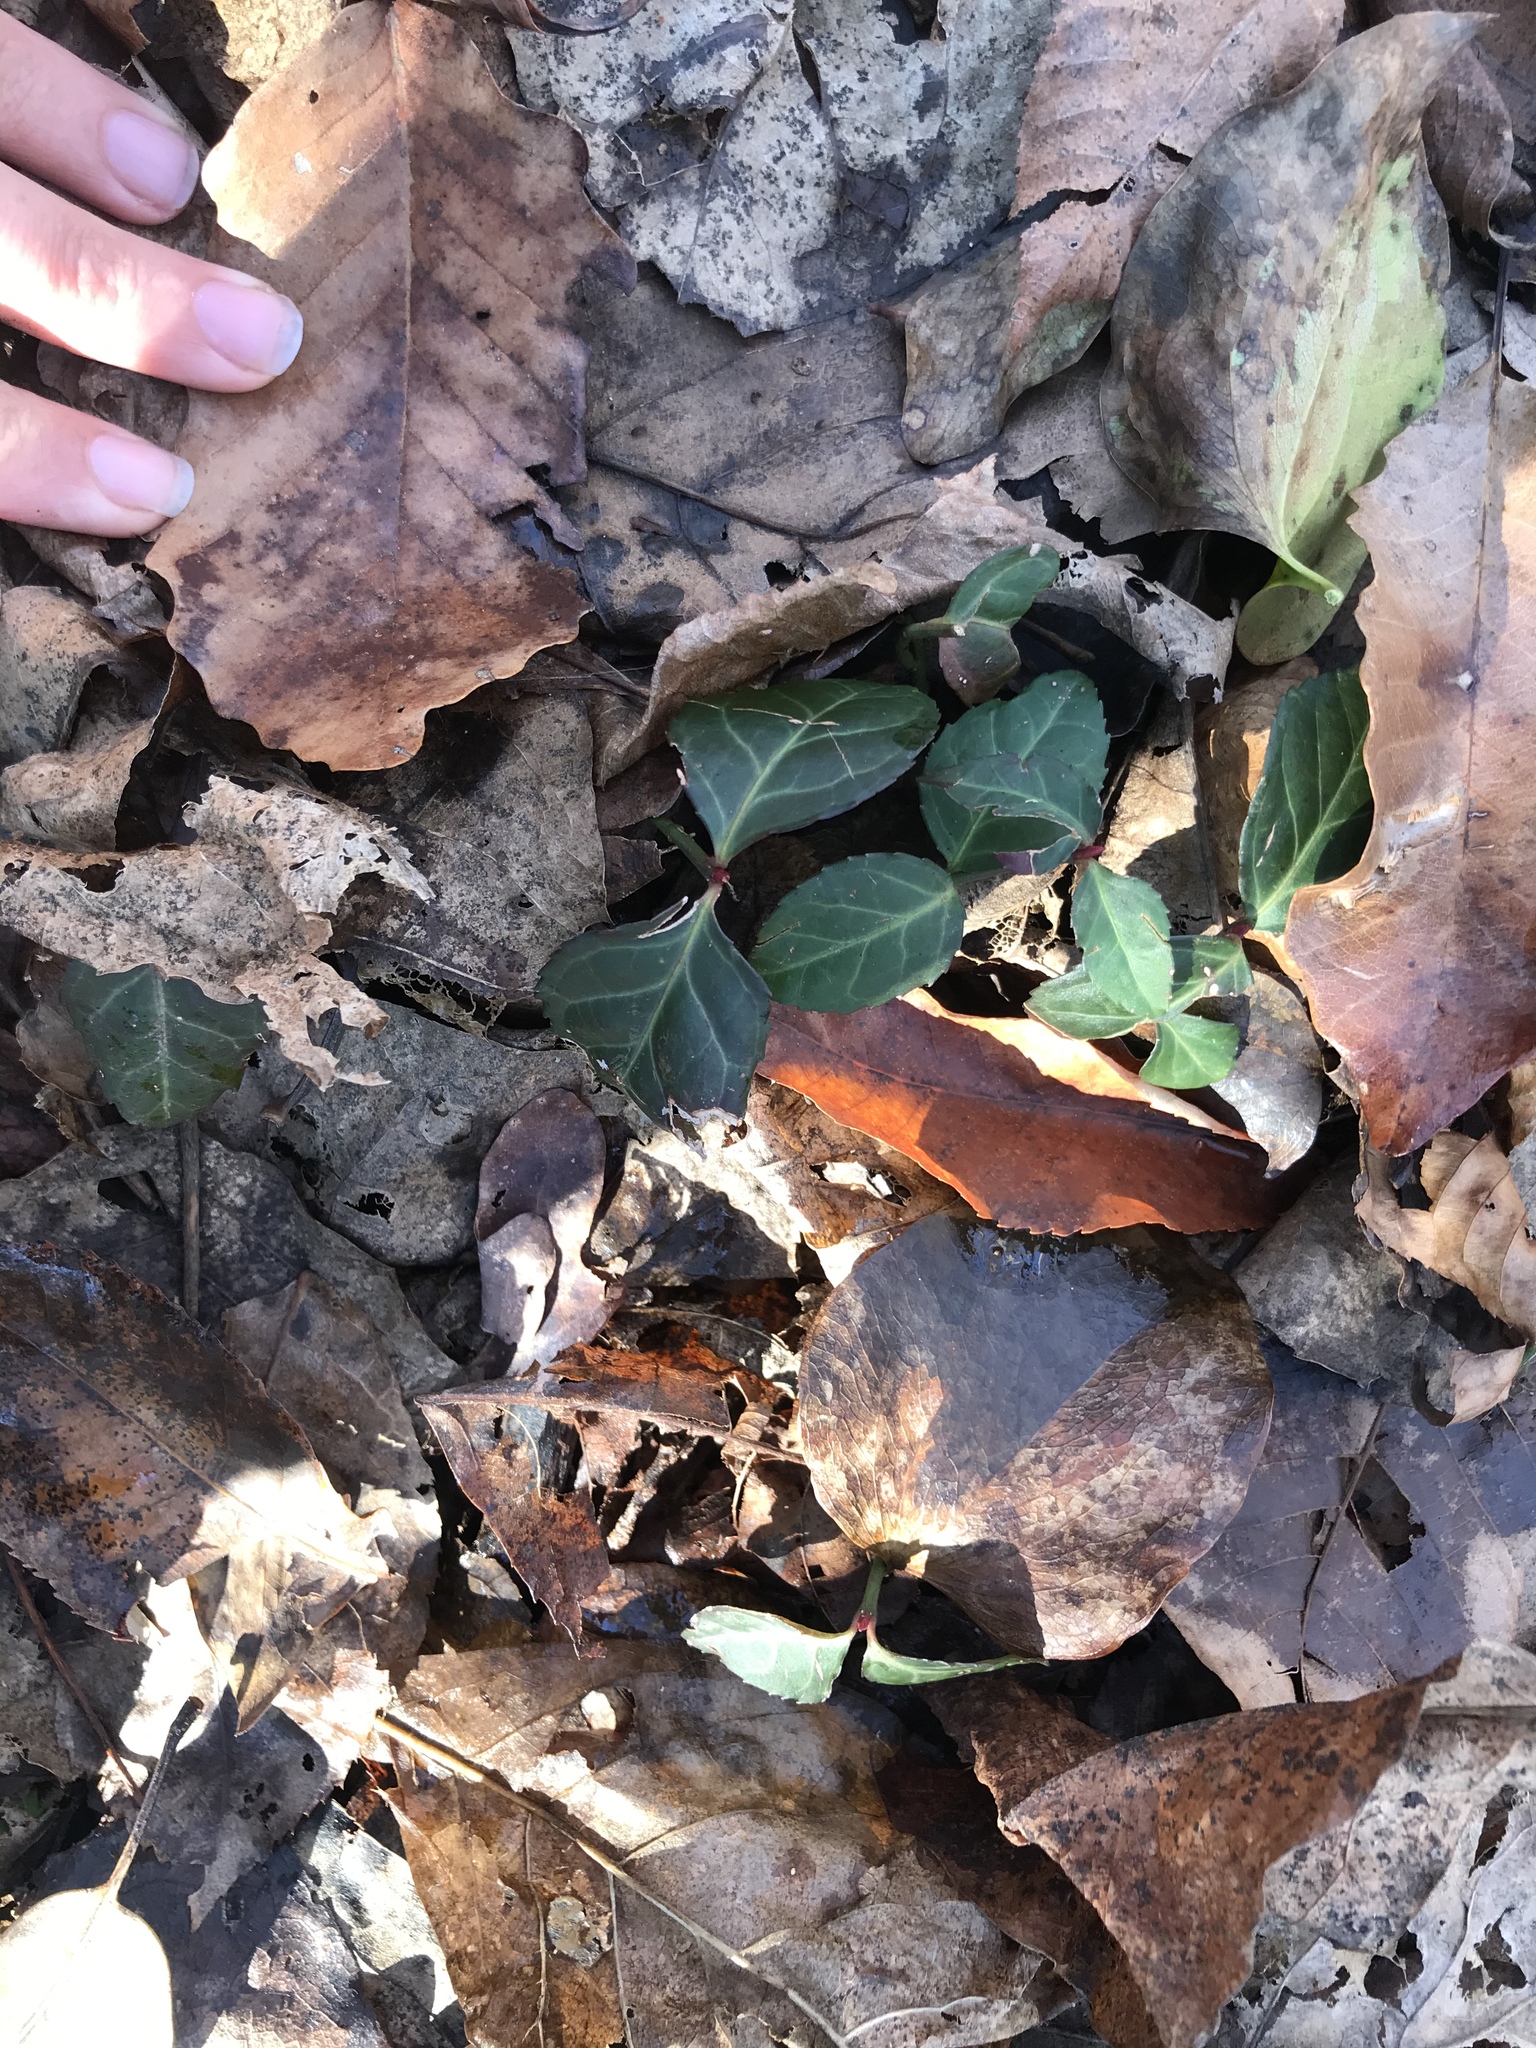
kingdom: Plantae
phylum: Tracheophyta
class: Magnoliopsida
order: Celastrales
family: Celastraceae
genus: Euonymus
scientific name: Euonymus fortunei
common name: Climbing euonymus
